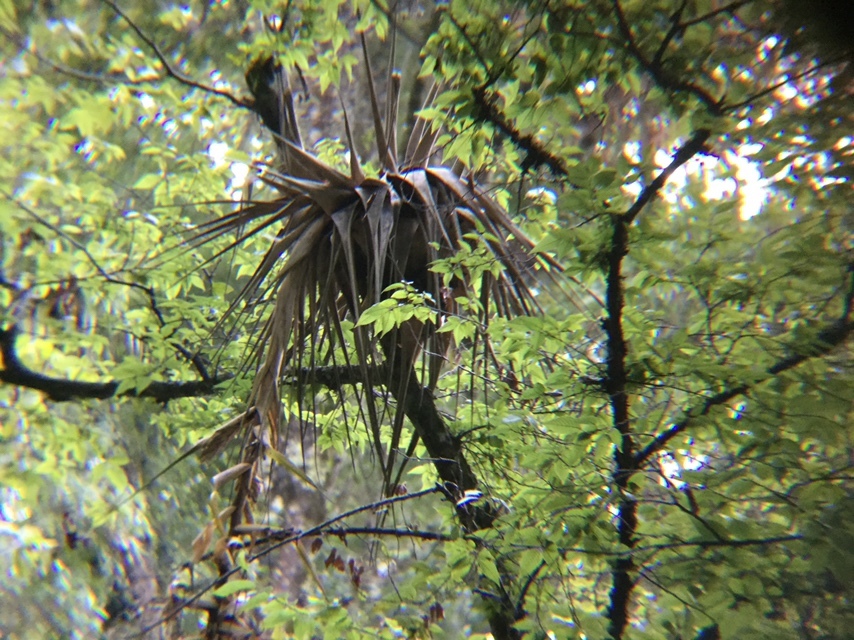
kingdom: Plantae
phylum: Tracheophyta
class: Liliopsida
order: Poales
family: Bromeliaceae
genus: Tillandsia
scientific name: Tillandsia prodigiosa
